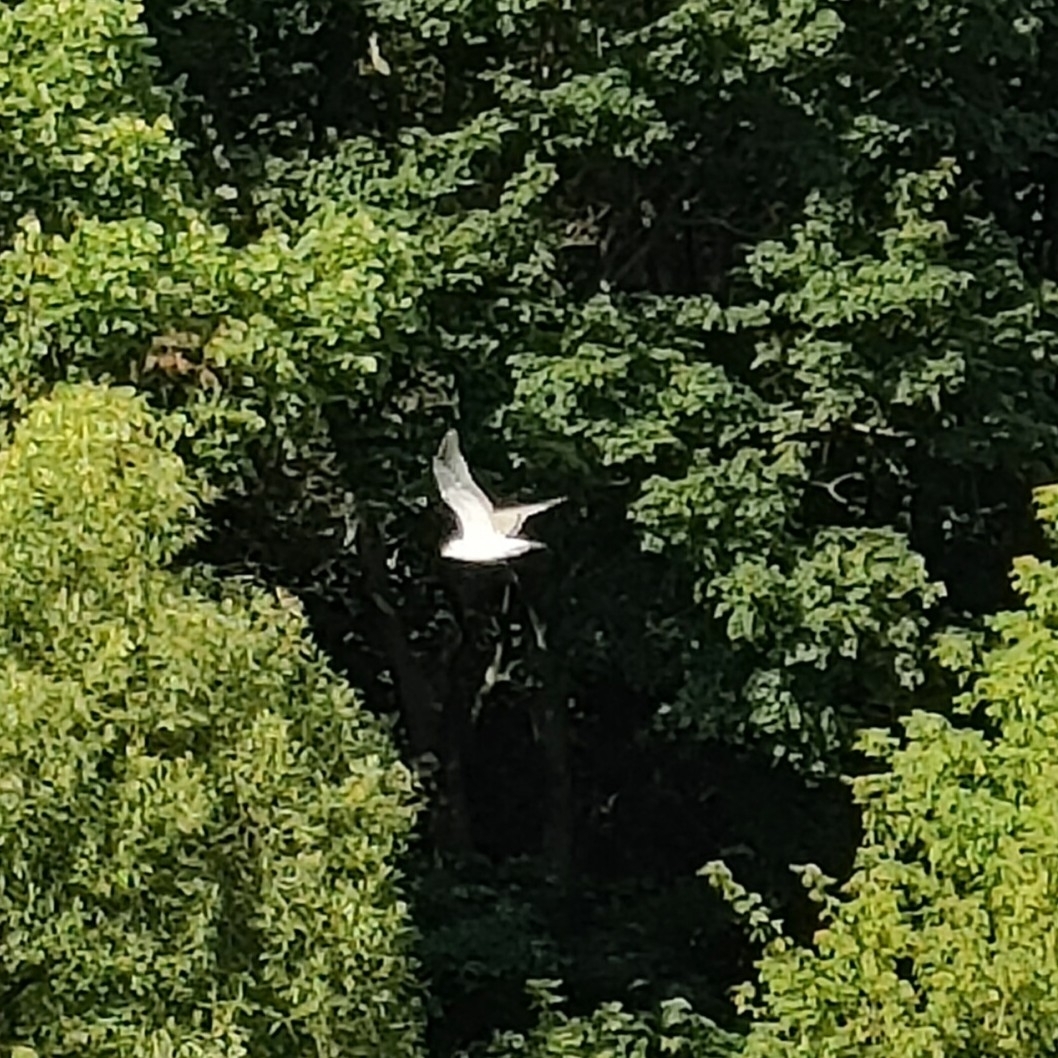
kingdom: Animalia
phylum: Chordata
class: Aves
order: Charadriiformes
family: Laridae
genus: Chroicocephalus
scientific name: Chroicocephalus ridibundus
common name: Black-headed gull
